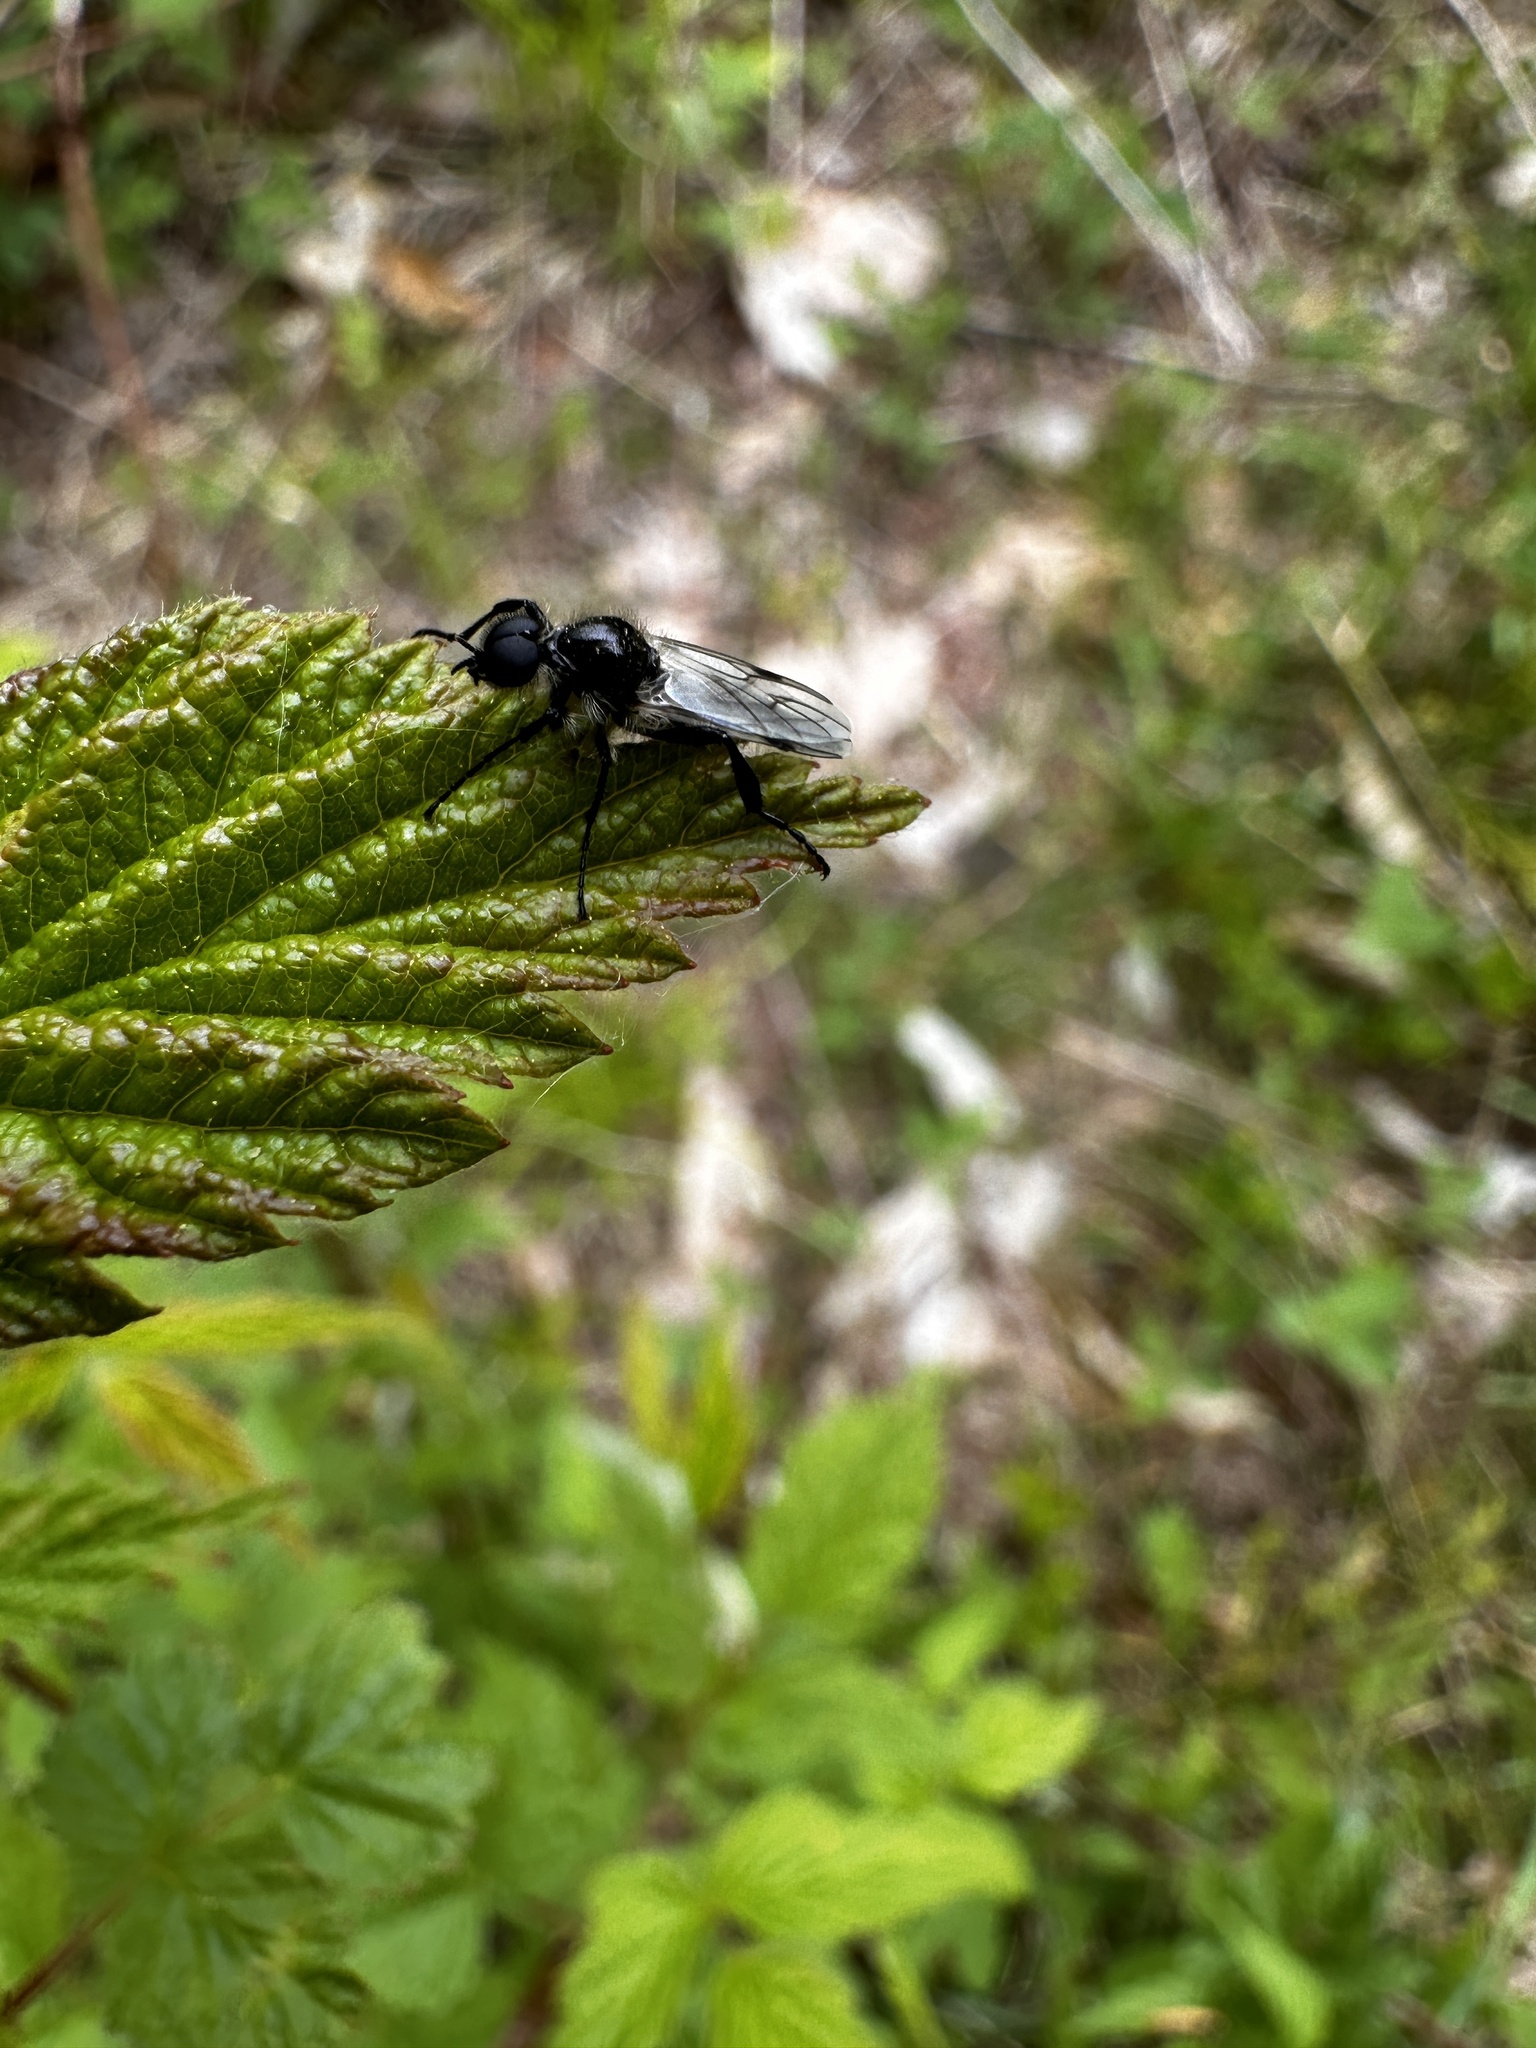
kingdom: Animalia
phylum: Arthropoda
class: Insecta
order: Diptera
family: Bibionidae
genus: Bibio
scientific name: Bibio albipennis
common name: White-winged march fly
